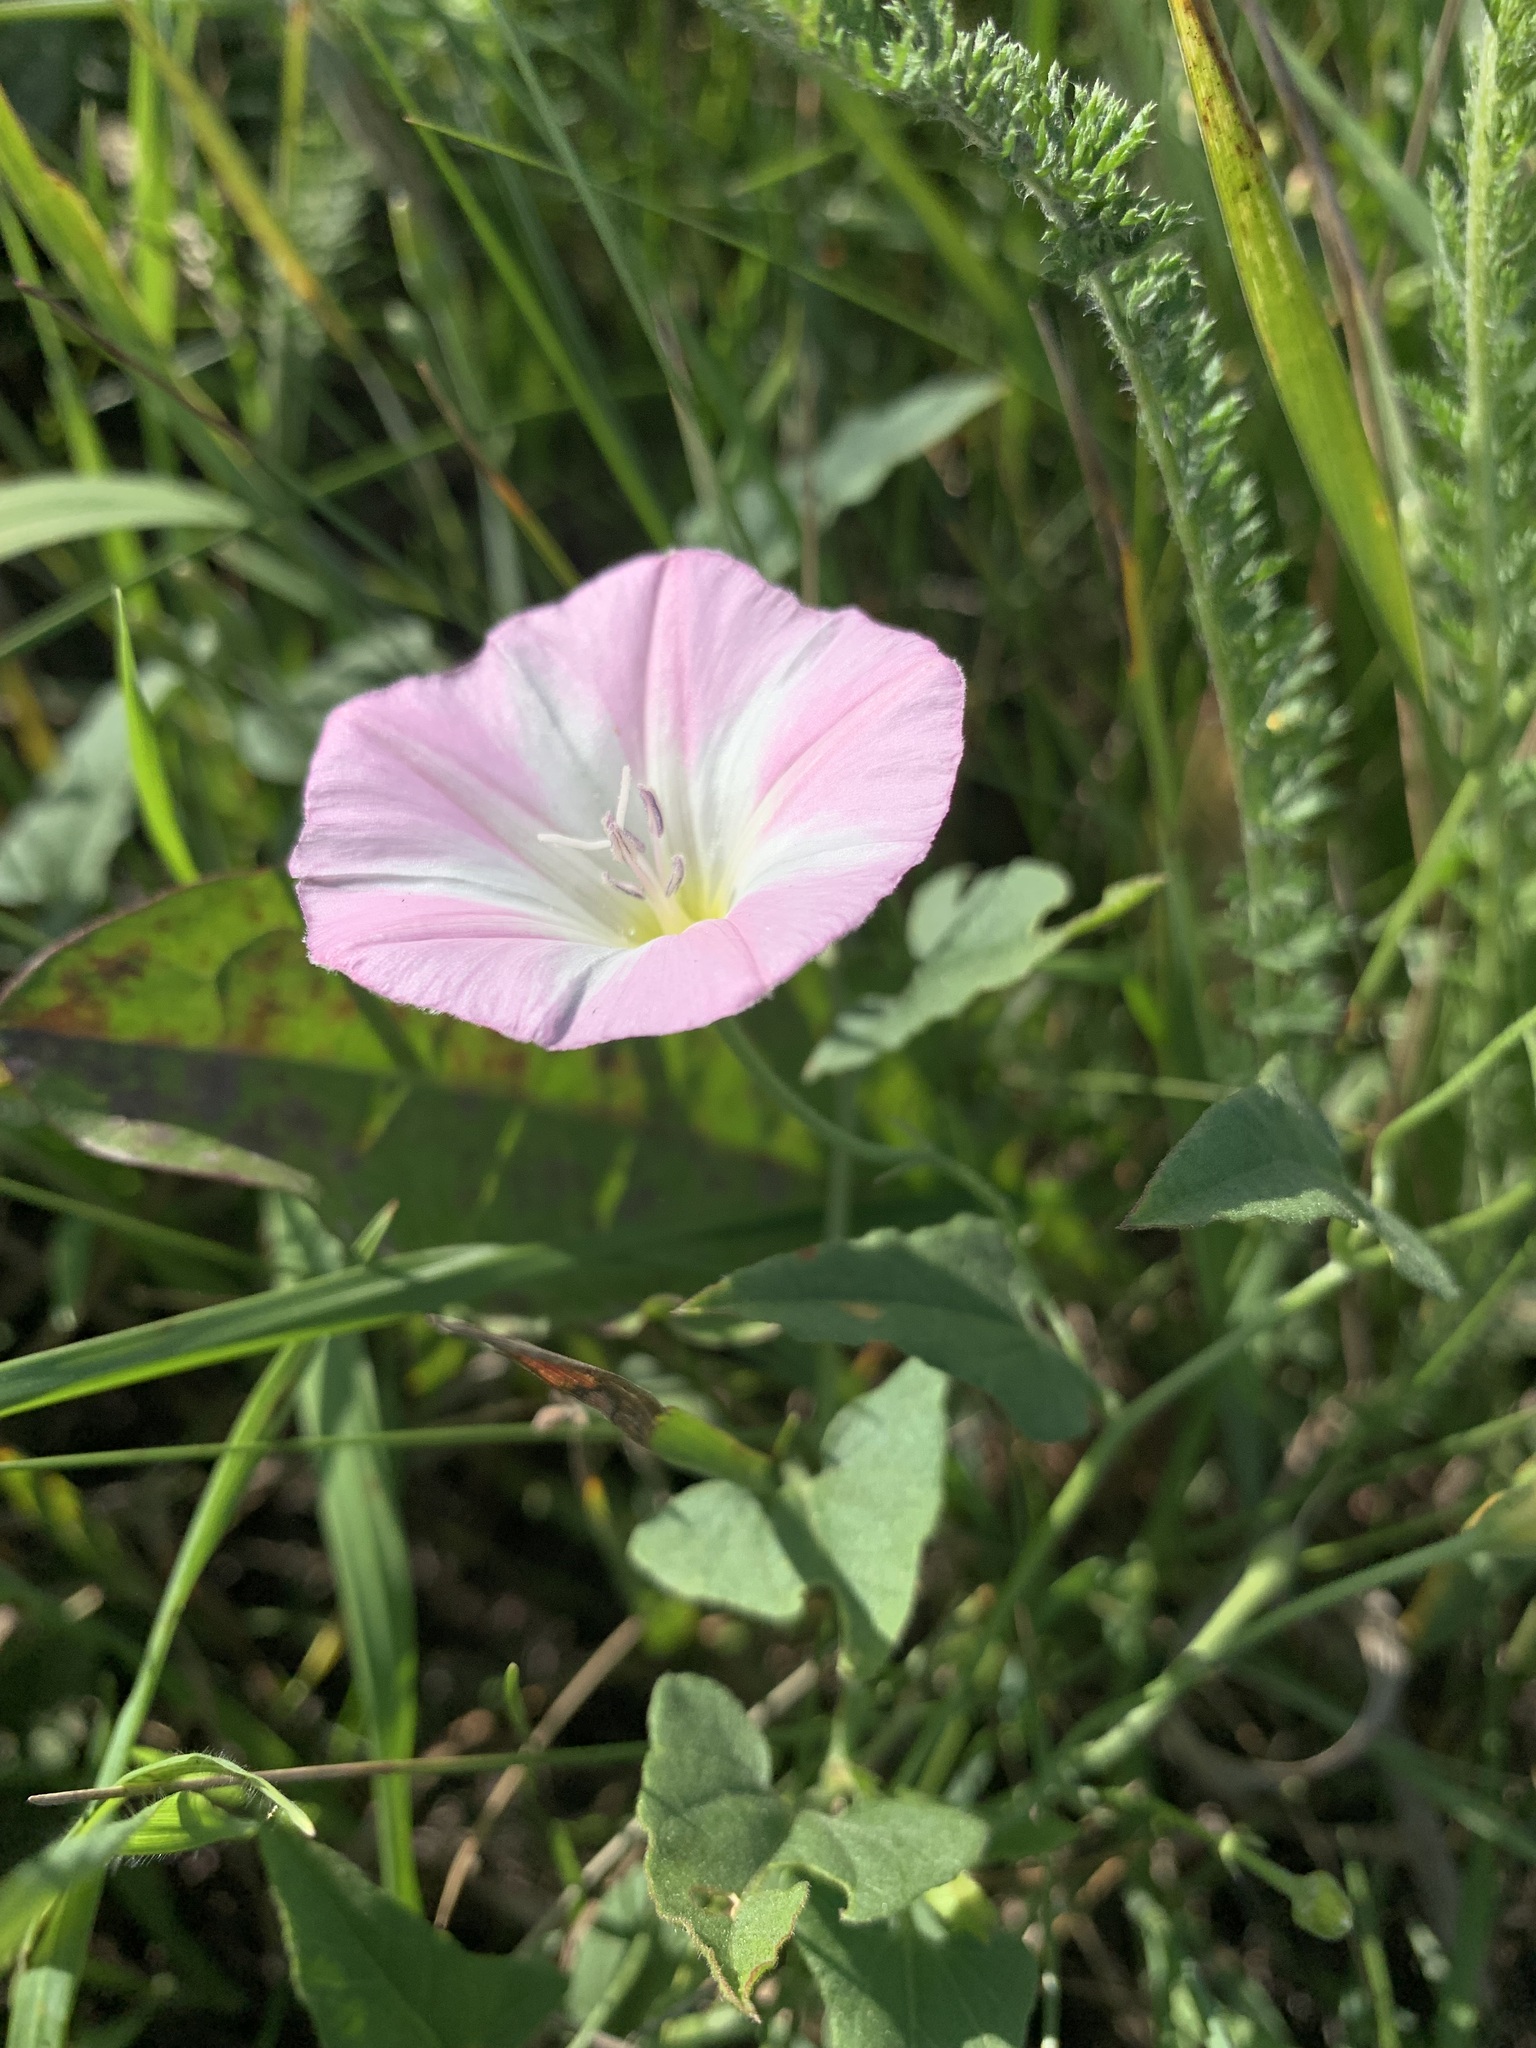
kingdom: Plantae
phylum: Tracheophyta
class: Magnoliopsida
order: Solanales
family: Convolvulaceae
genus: Convolvulus
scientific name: Convolvulus arvensis
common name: Field bindweed
